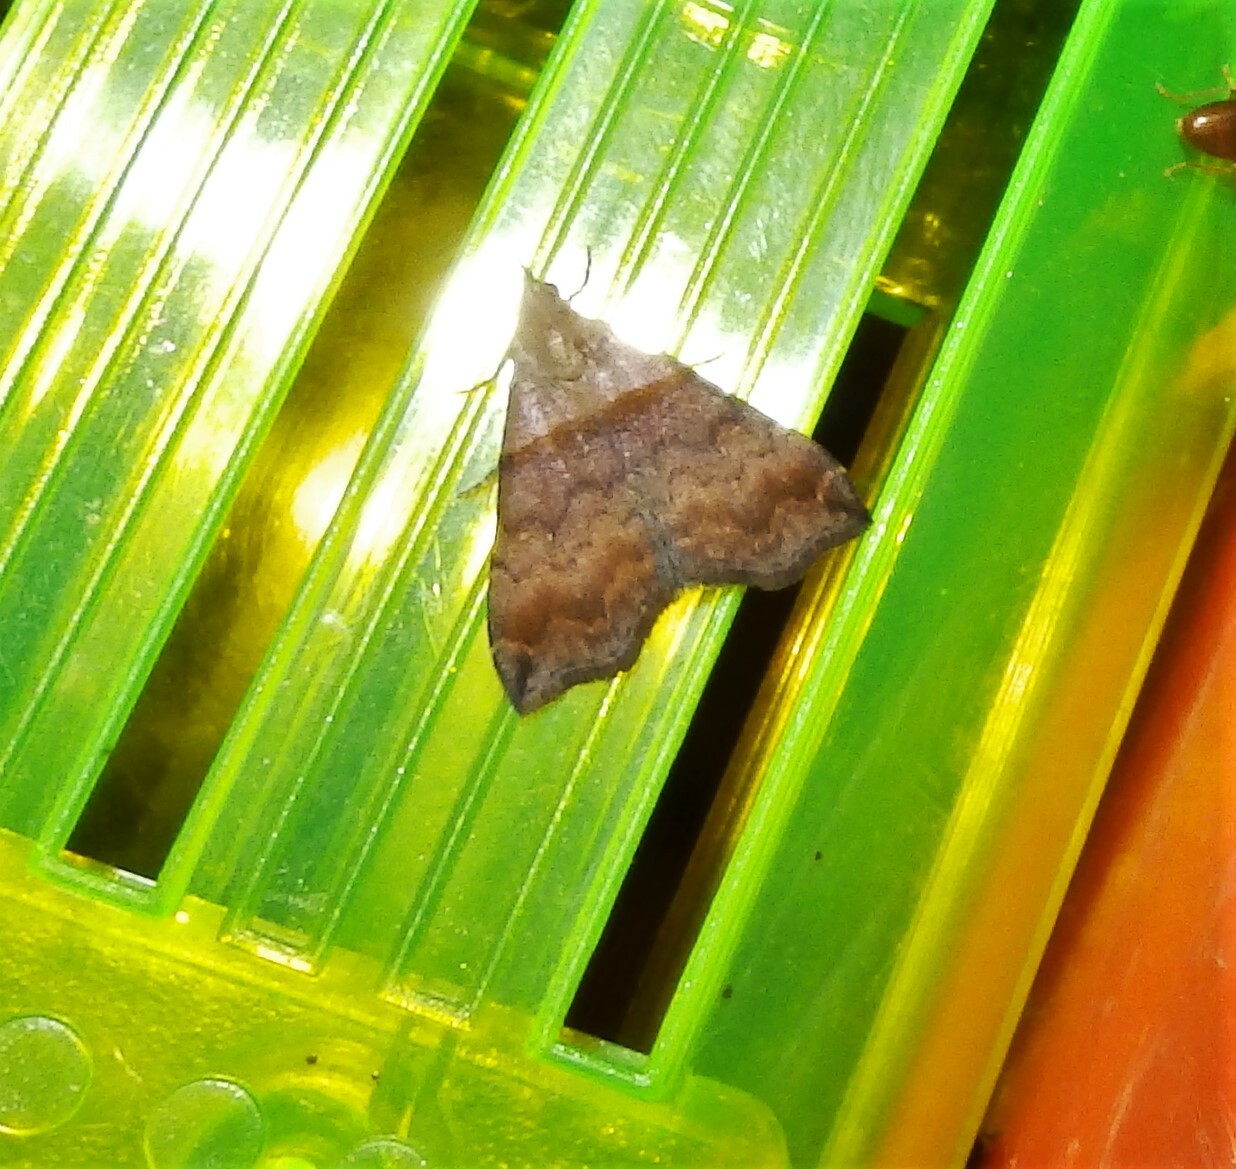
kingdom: Animalia
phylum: Arthropoda
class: Insecta
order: Lepidoptera
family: Erebidae
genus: Lascoria
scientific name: Lascoria ambigualis
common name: Ambiguous moth
